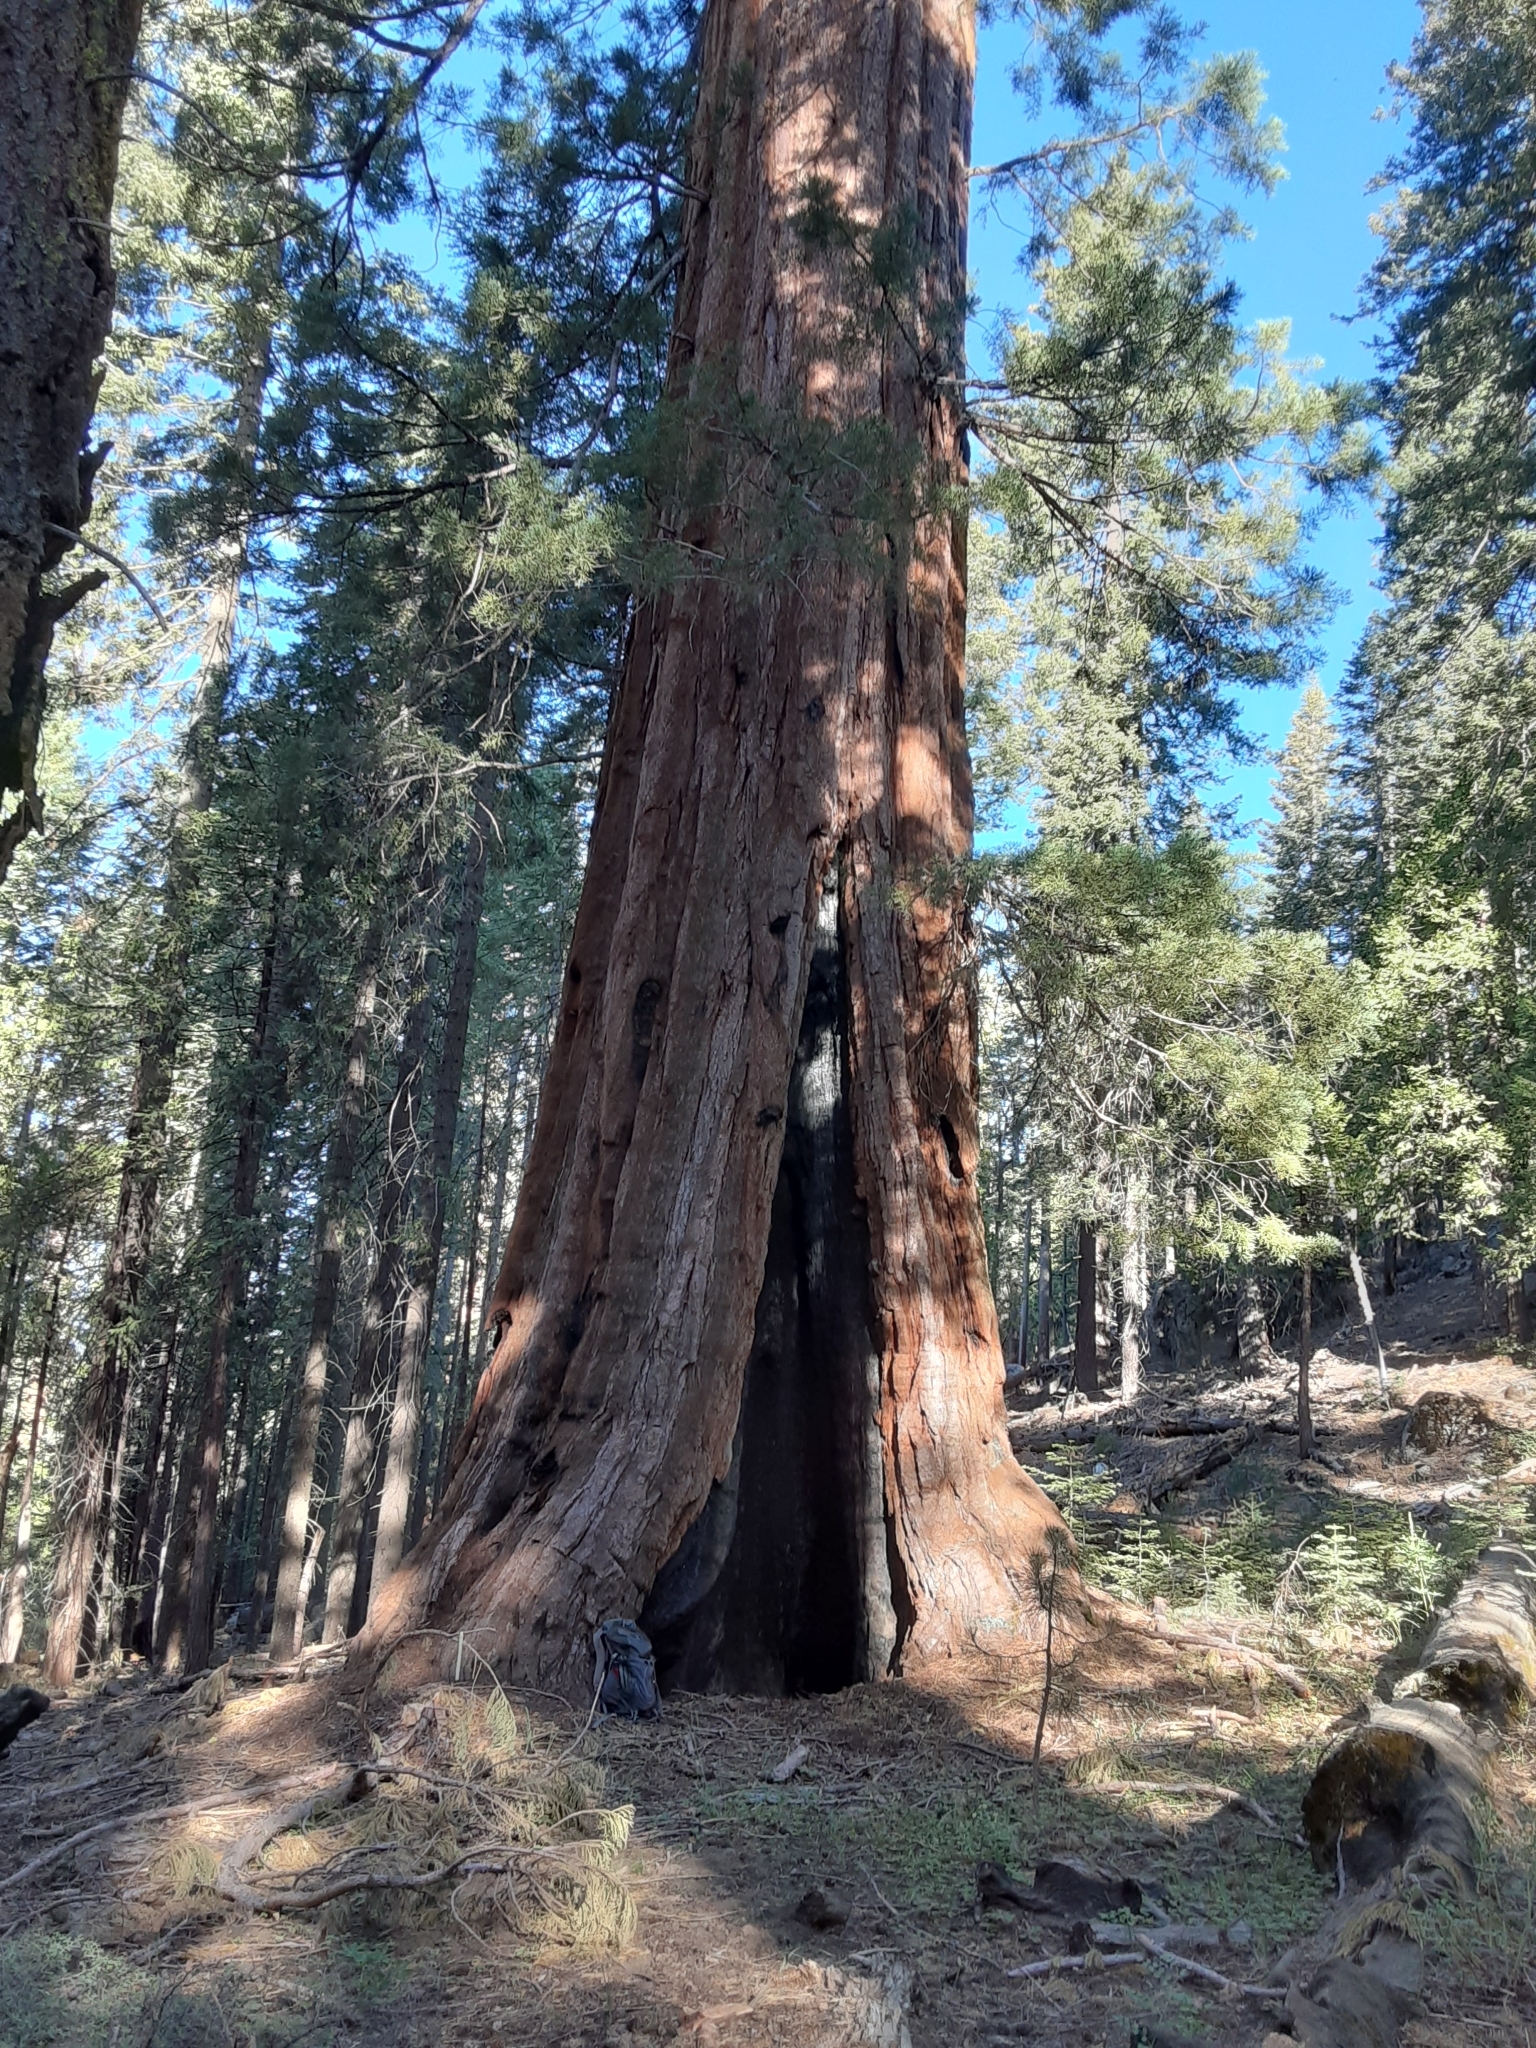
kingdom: Plantae
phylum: Tracheophyta
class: Pinopsida
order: Pinales
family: Cupressaceae
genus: Sequoiadendron
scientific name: Sequoiadendron giganteum
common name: Wellingtonia
